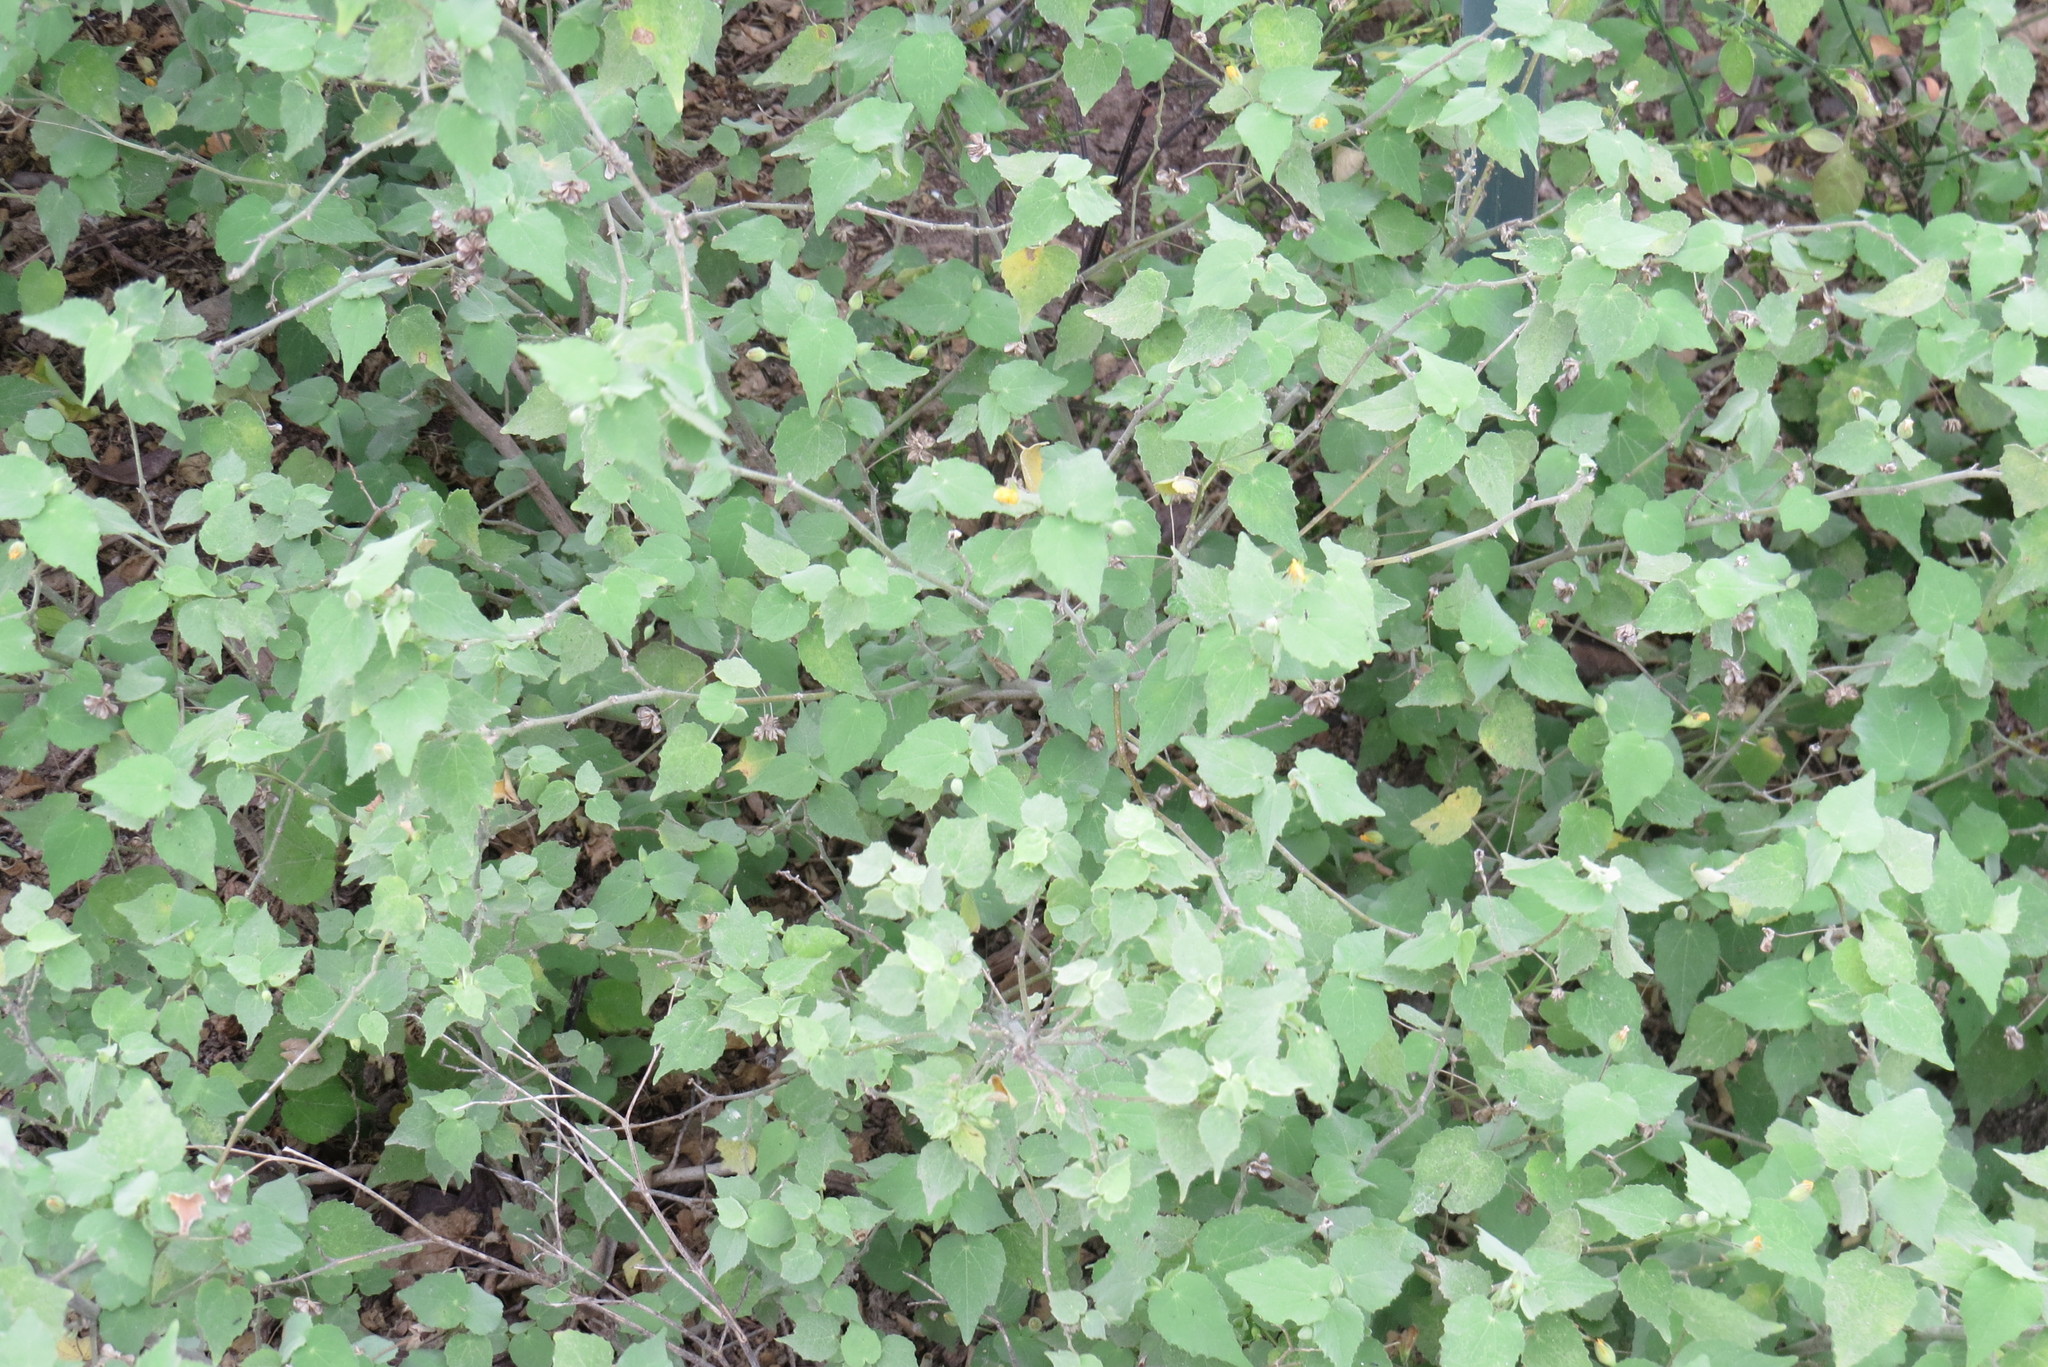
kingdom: Plantae
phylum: Tracheophyta
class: Magnoliopsida
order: Malvales
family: Malvaceae
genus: Abutilon
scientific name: Abutilon viscosum
